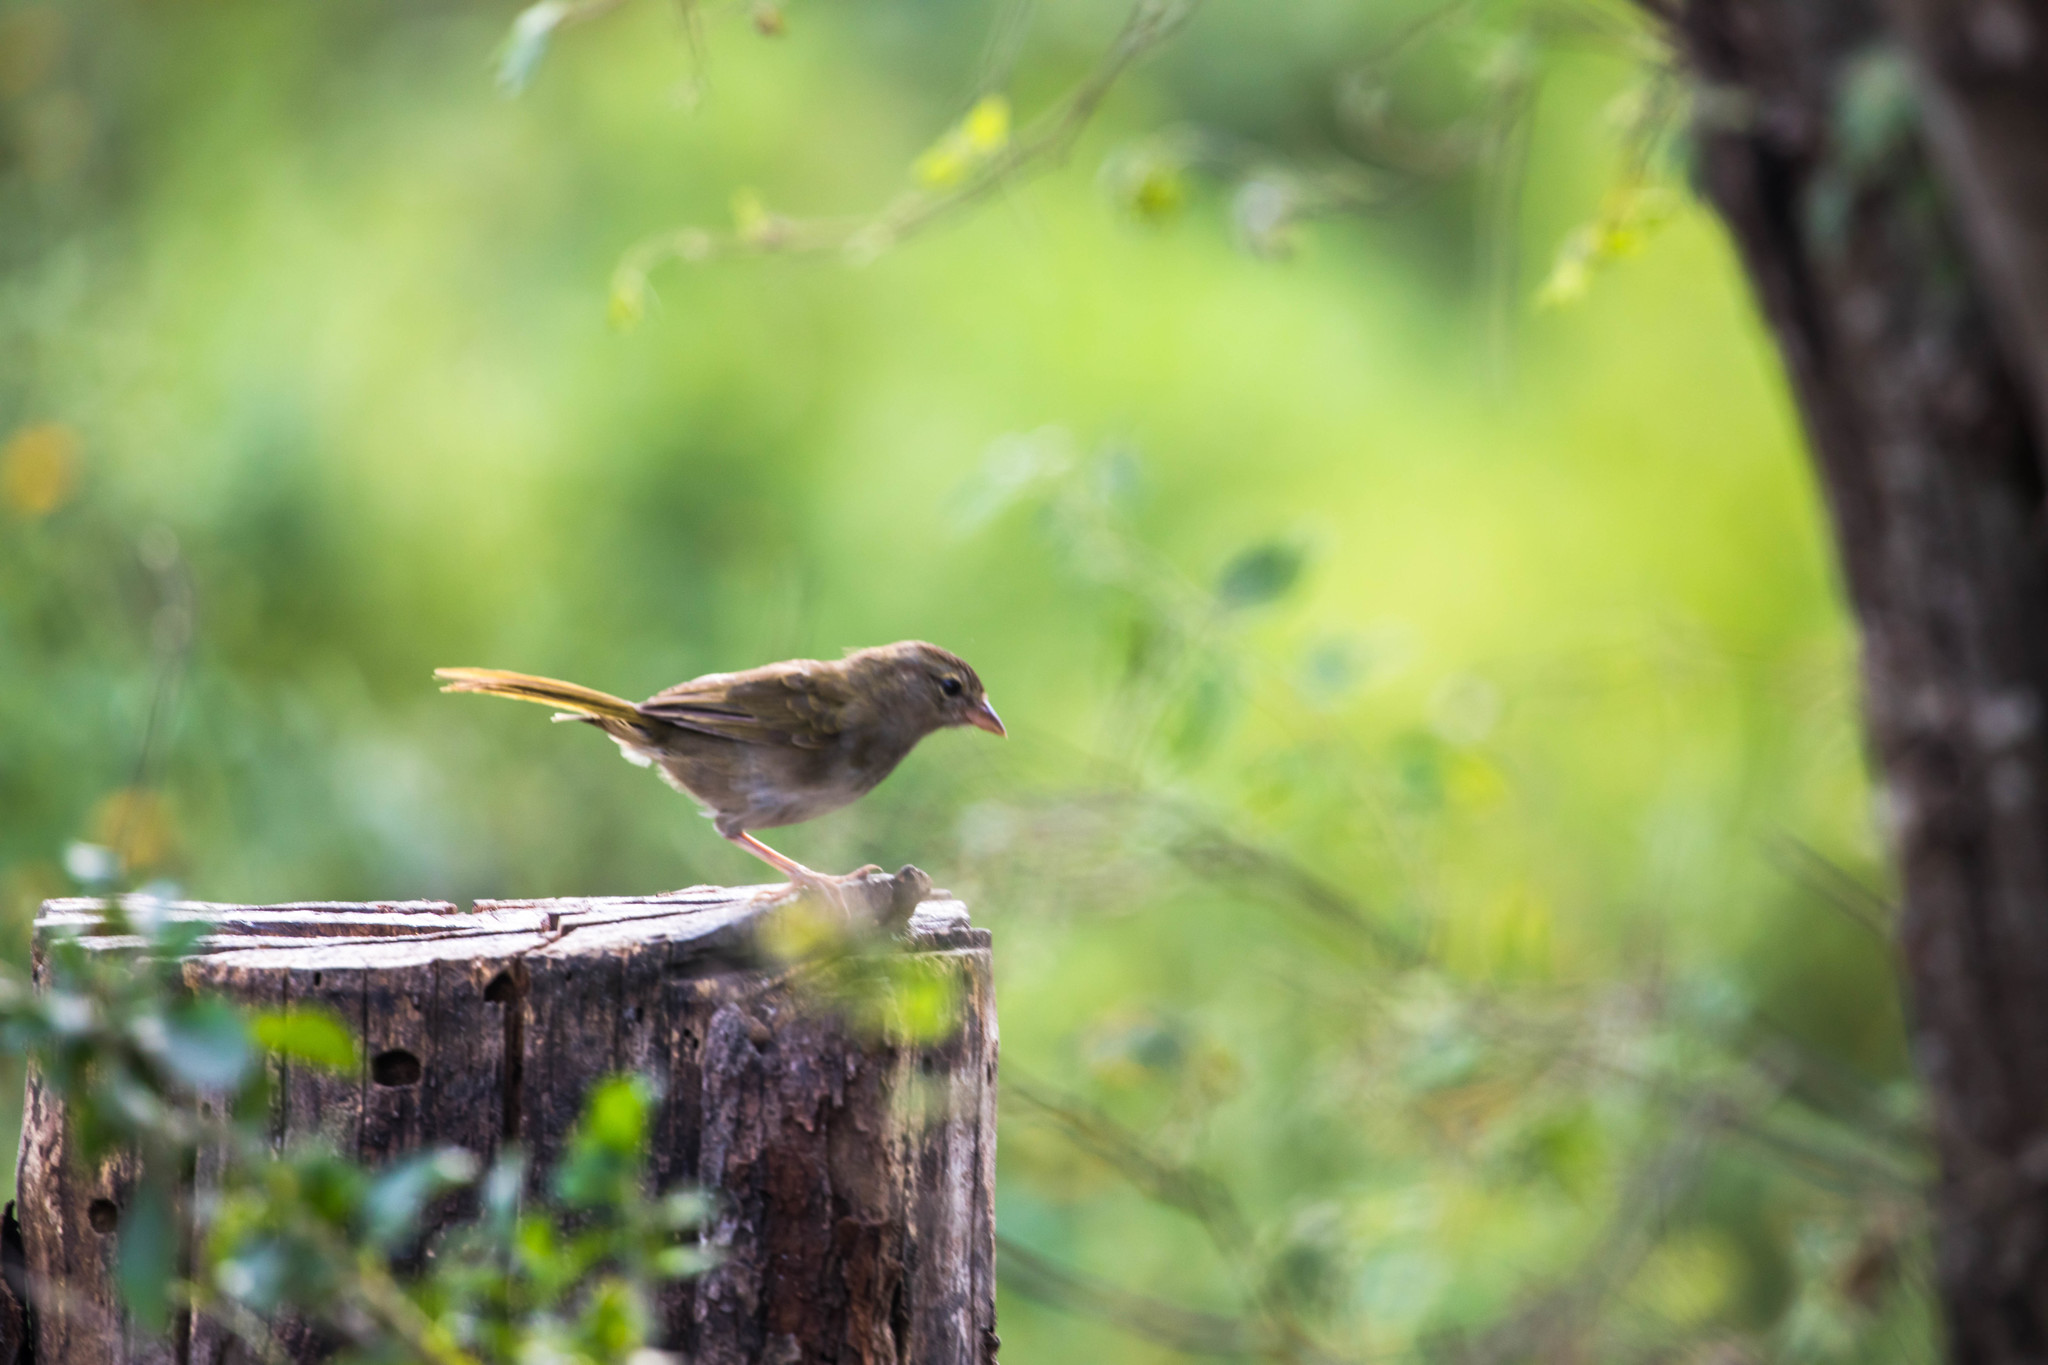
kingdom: Animalia
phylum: Chordata
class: Aves
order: Passeriformes
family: Passerellidae
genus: Arremonops
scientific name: Arremonops rufivirgatus
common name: Olive sparrow
